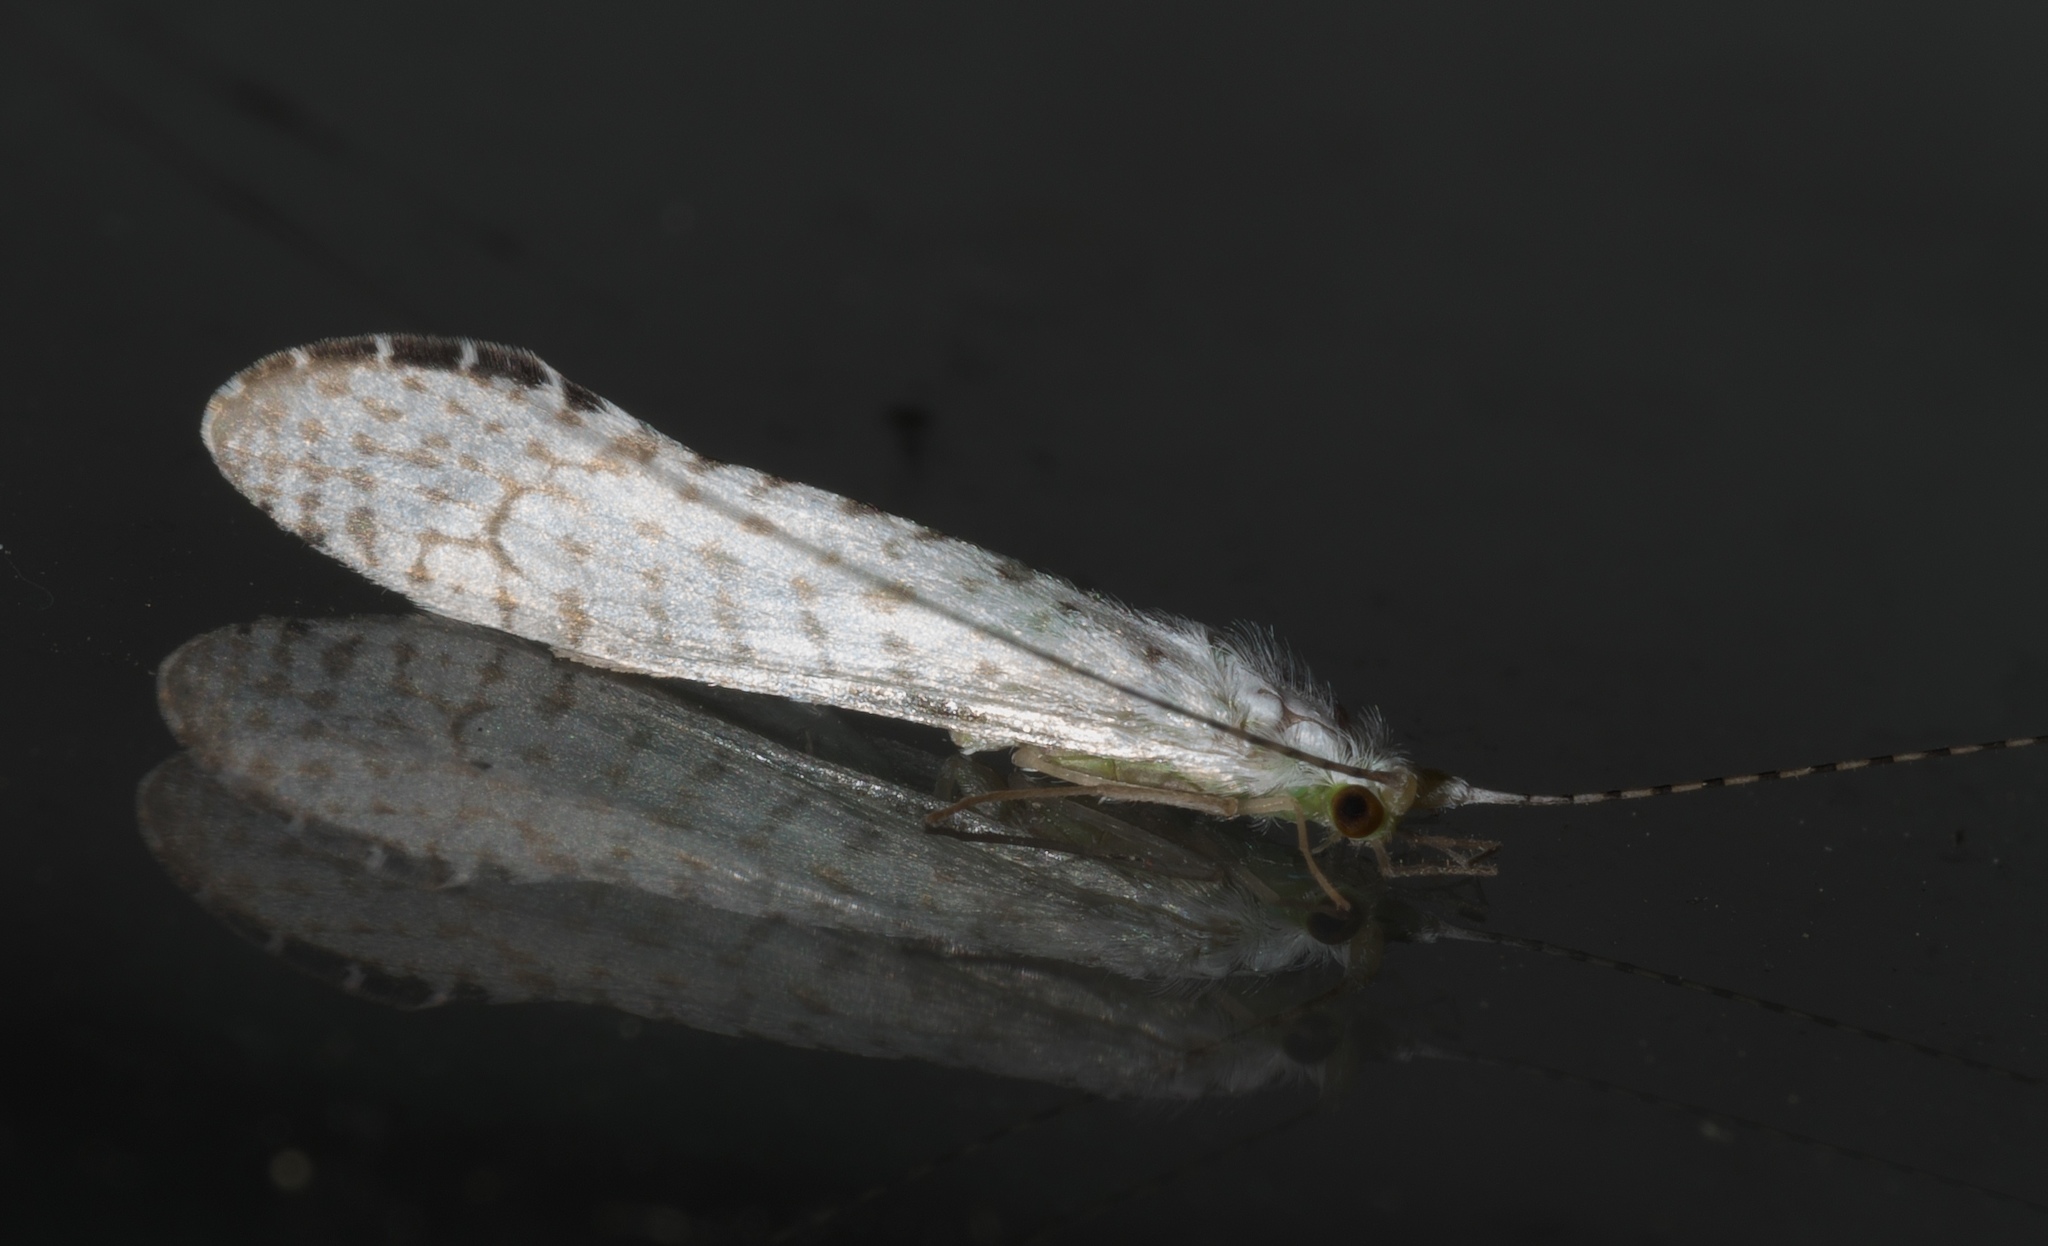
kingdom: Animalia
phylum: Arthropoda
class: Insecta
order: Trichoptera
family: Leptoceridae
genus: Nectopsyche
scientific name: Nectopsyche candida
